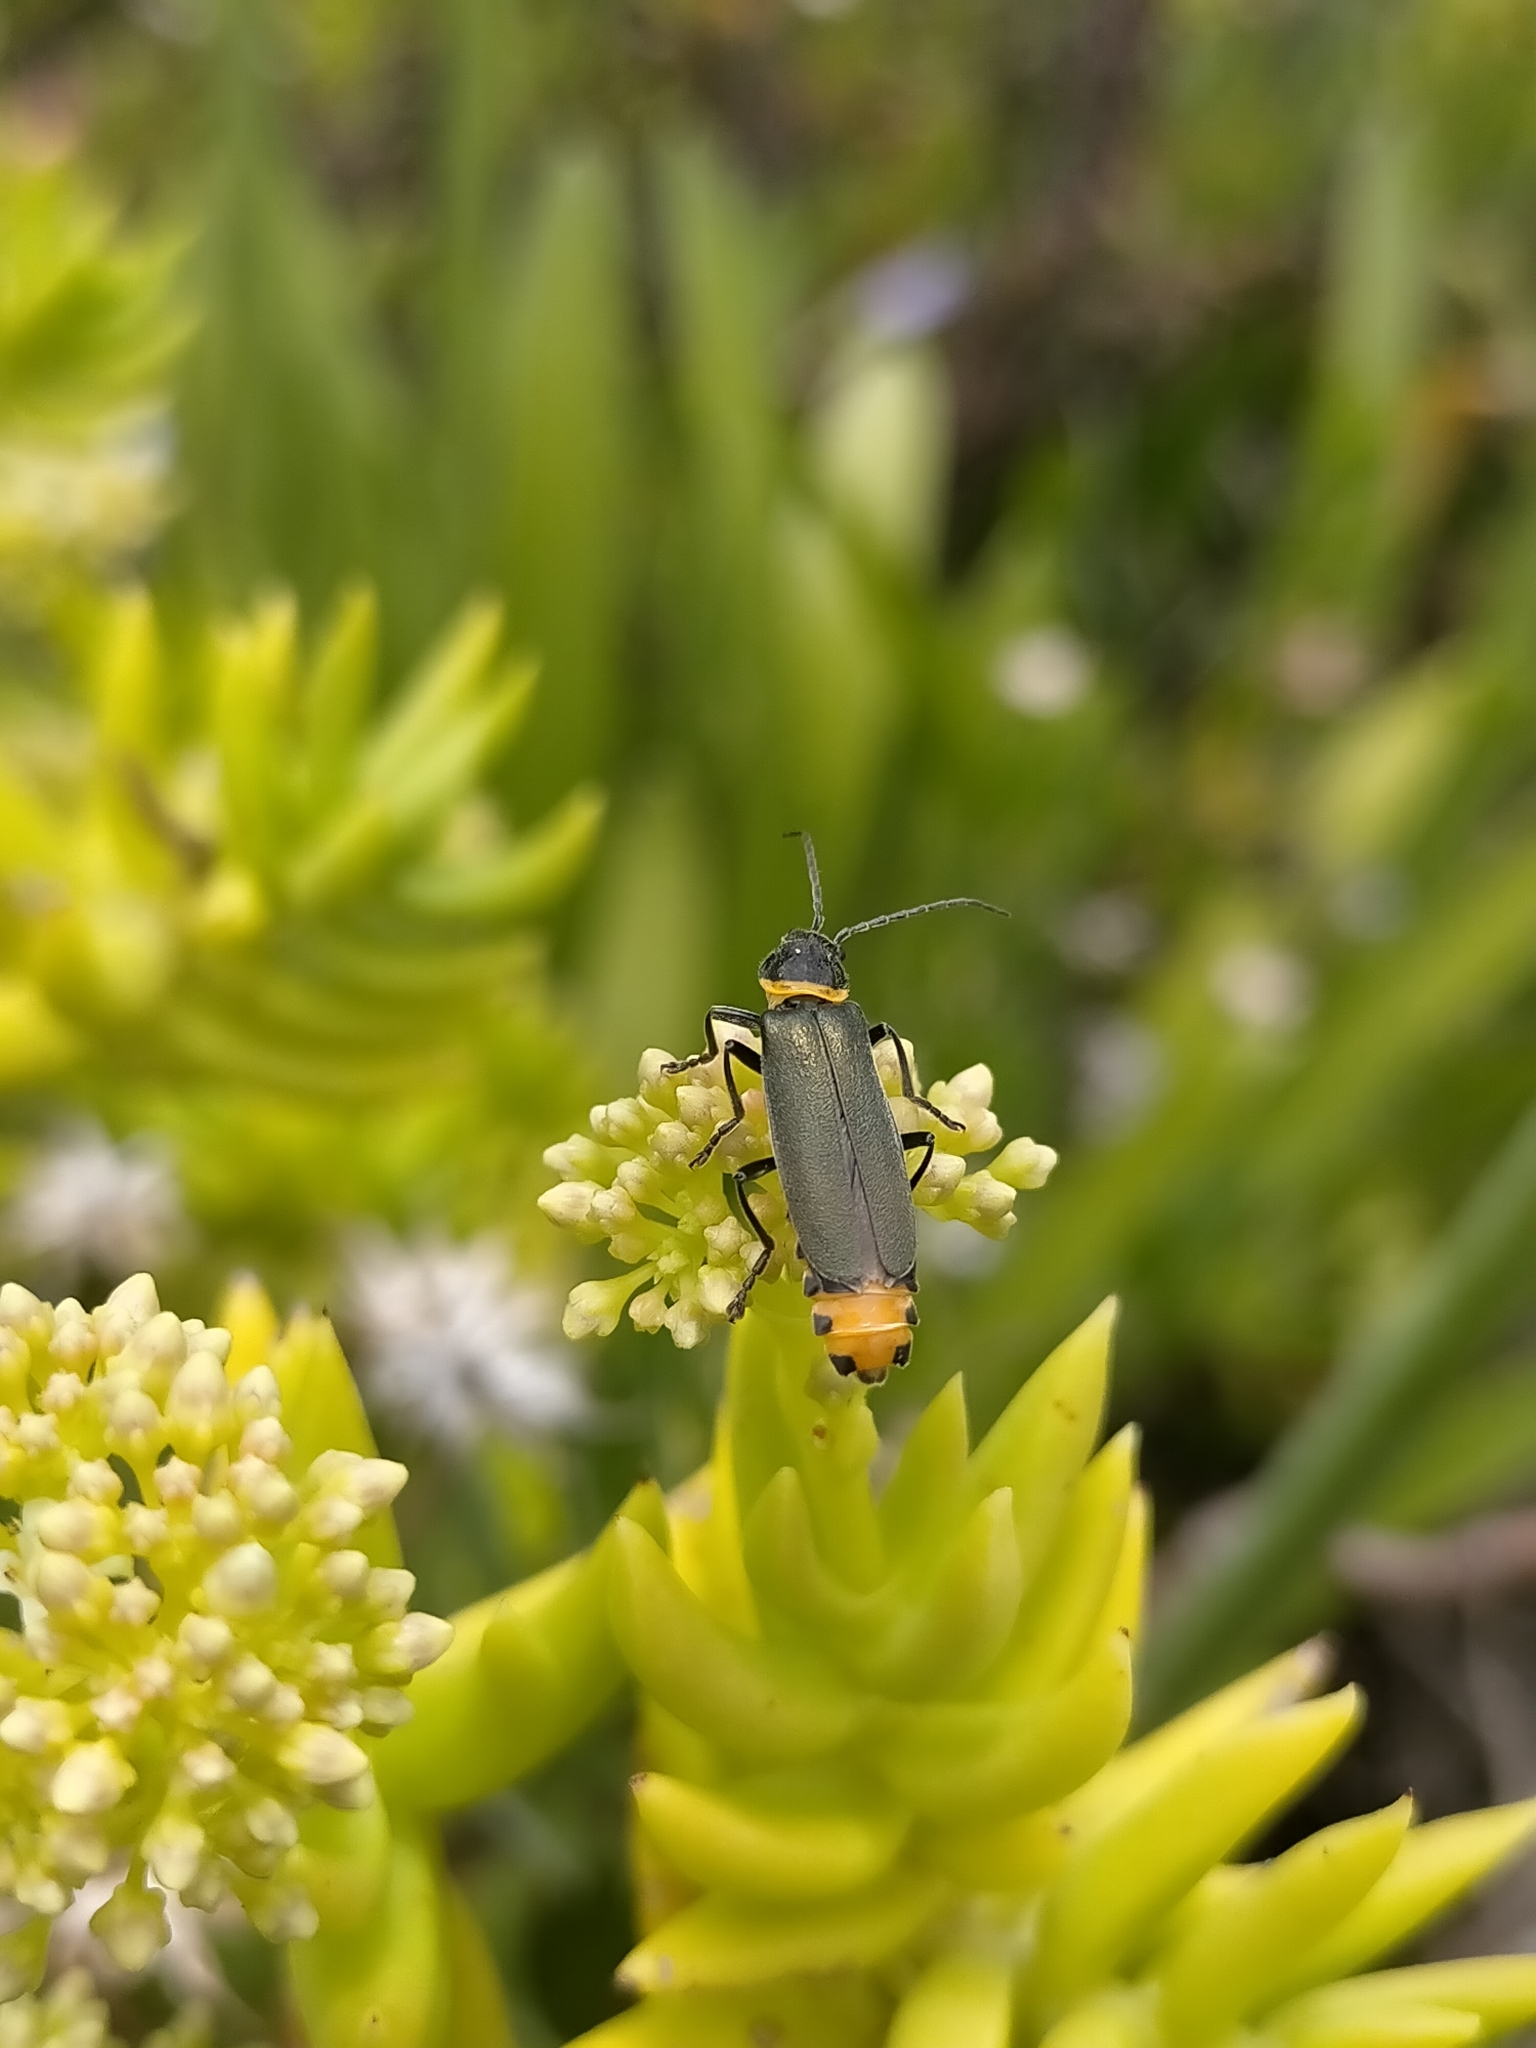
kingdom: Animalia
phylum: Arthropoda
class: Insecta
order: Coleoptera
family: Cantharidae
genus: Chauliognathus
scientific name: Chauliognathus
